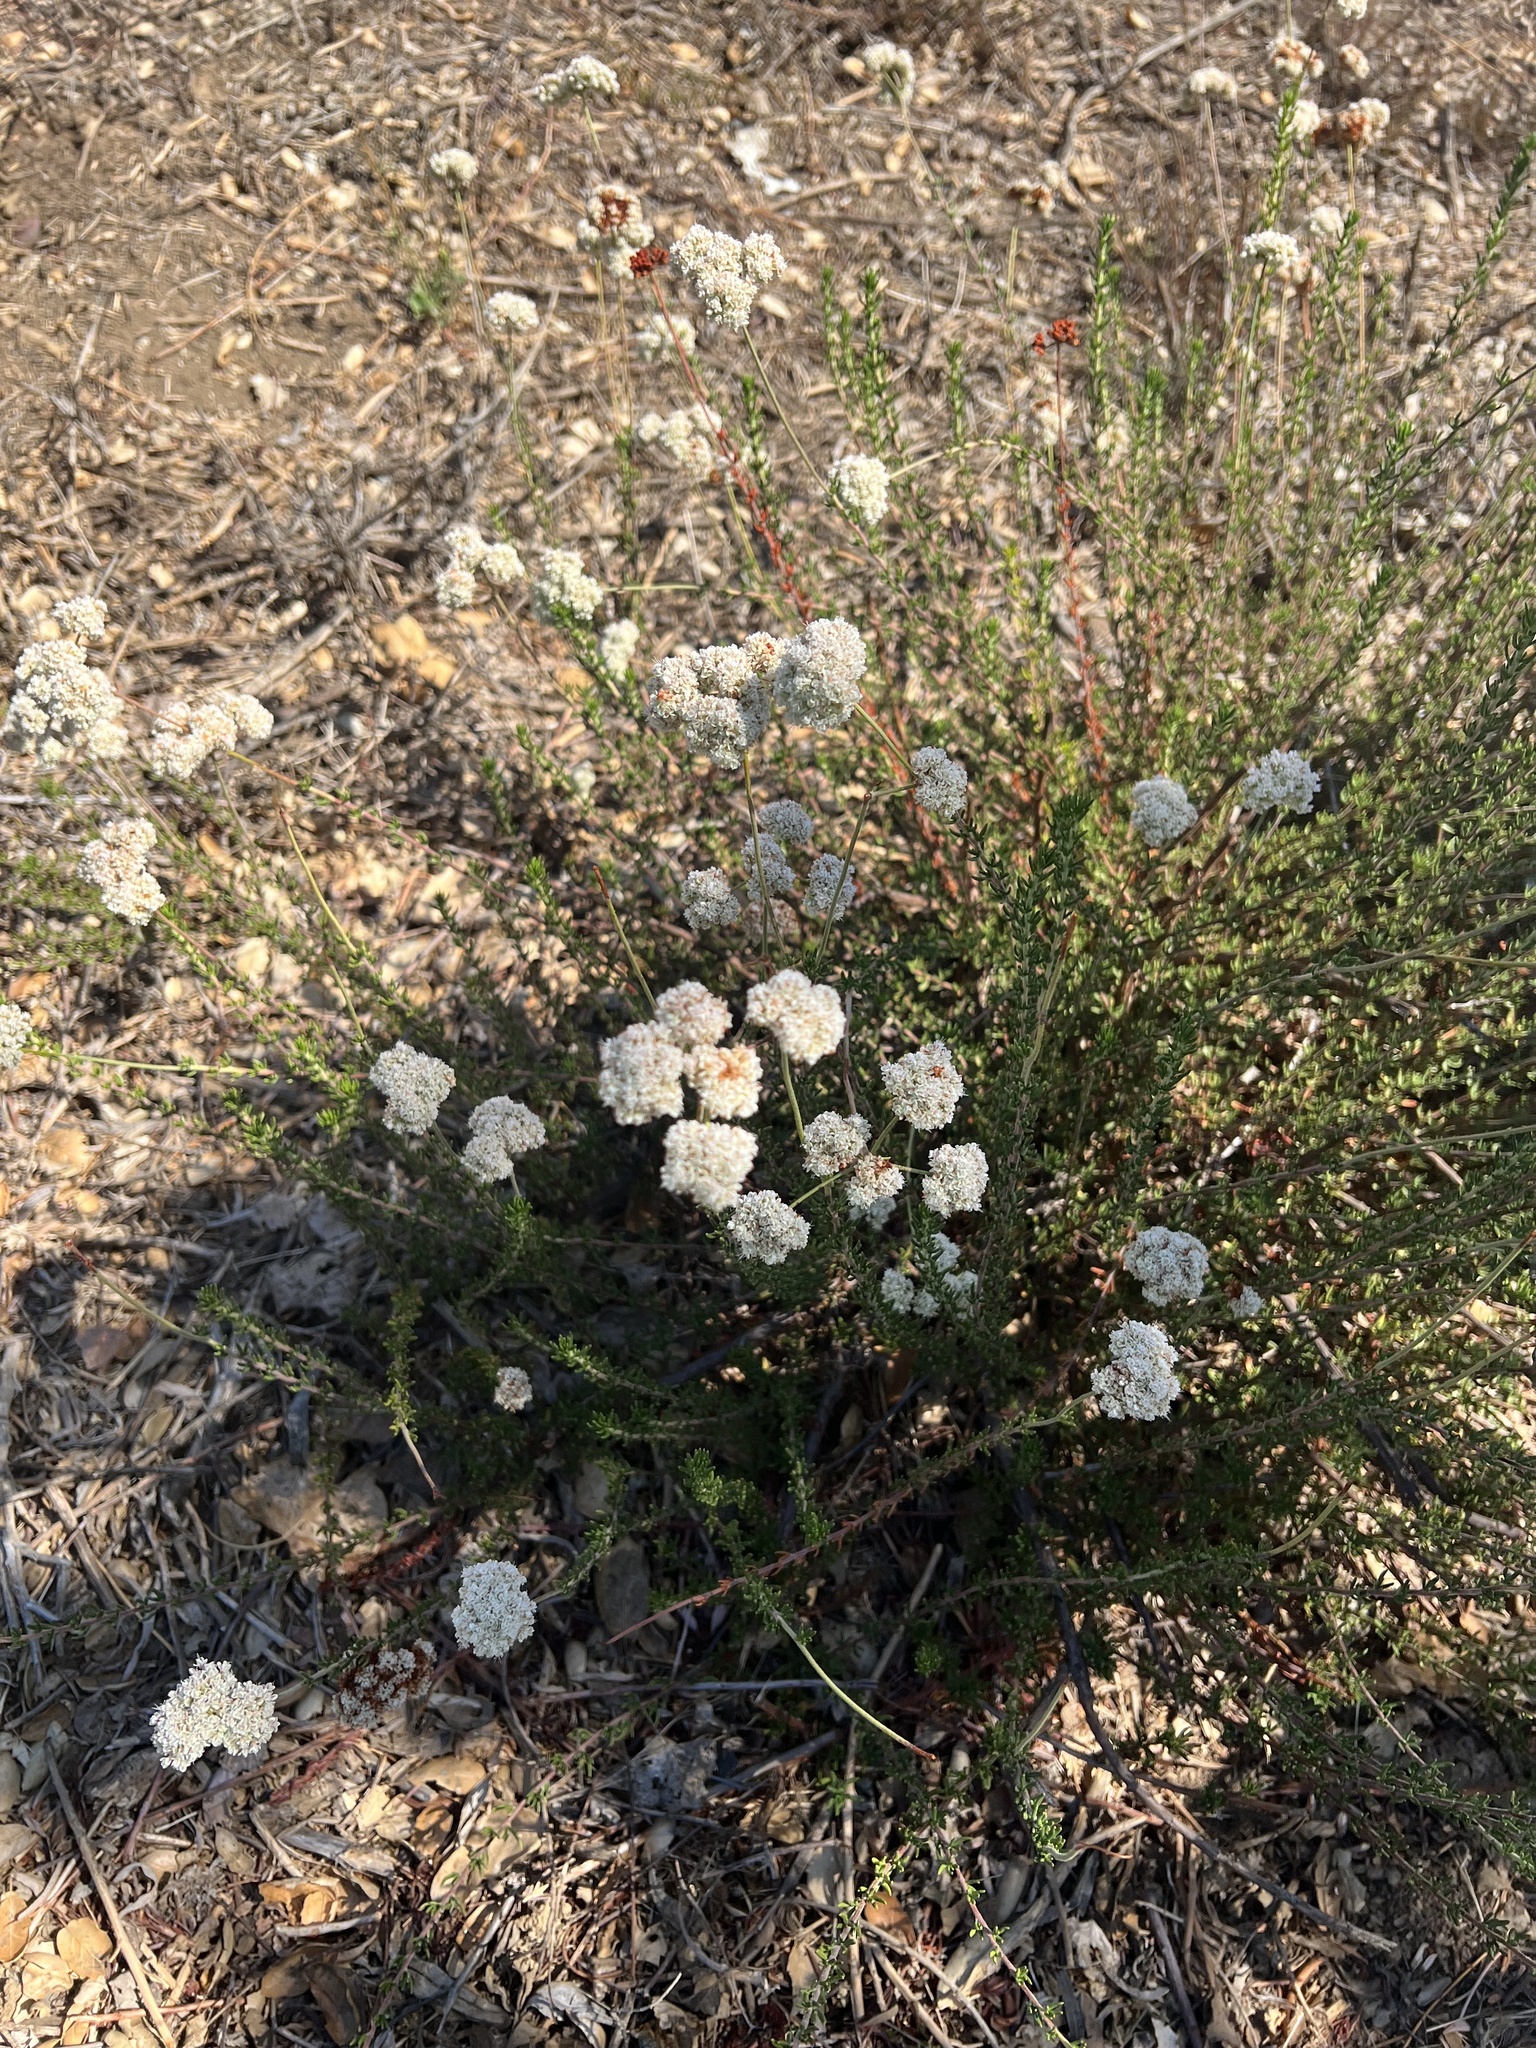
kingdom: Plantae
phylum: Tracheophyta
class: Magnoliopsida
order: Caryophyllales
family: Polygonaceae
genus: Eriogonum
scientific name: Eriogonum fasciculatum
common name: California wild buckwheat
